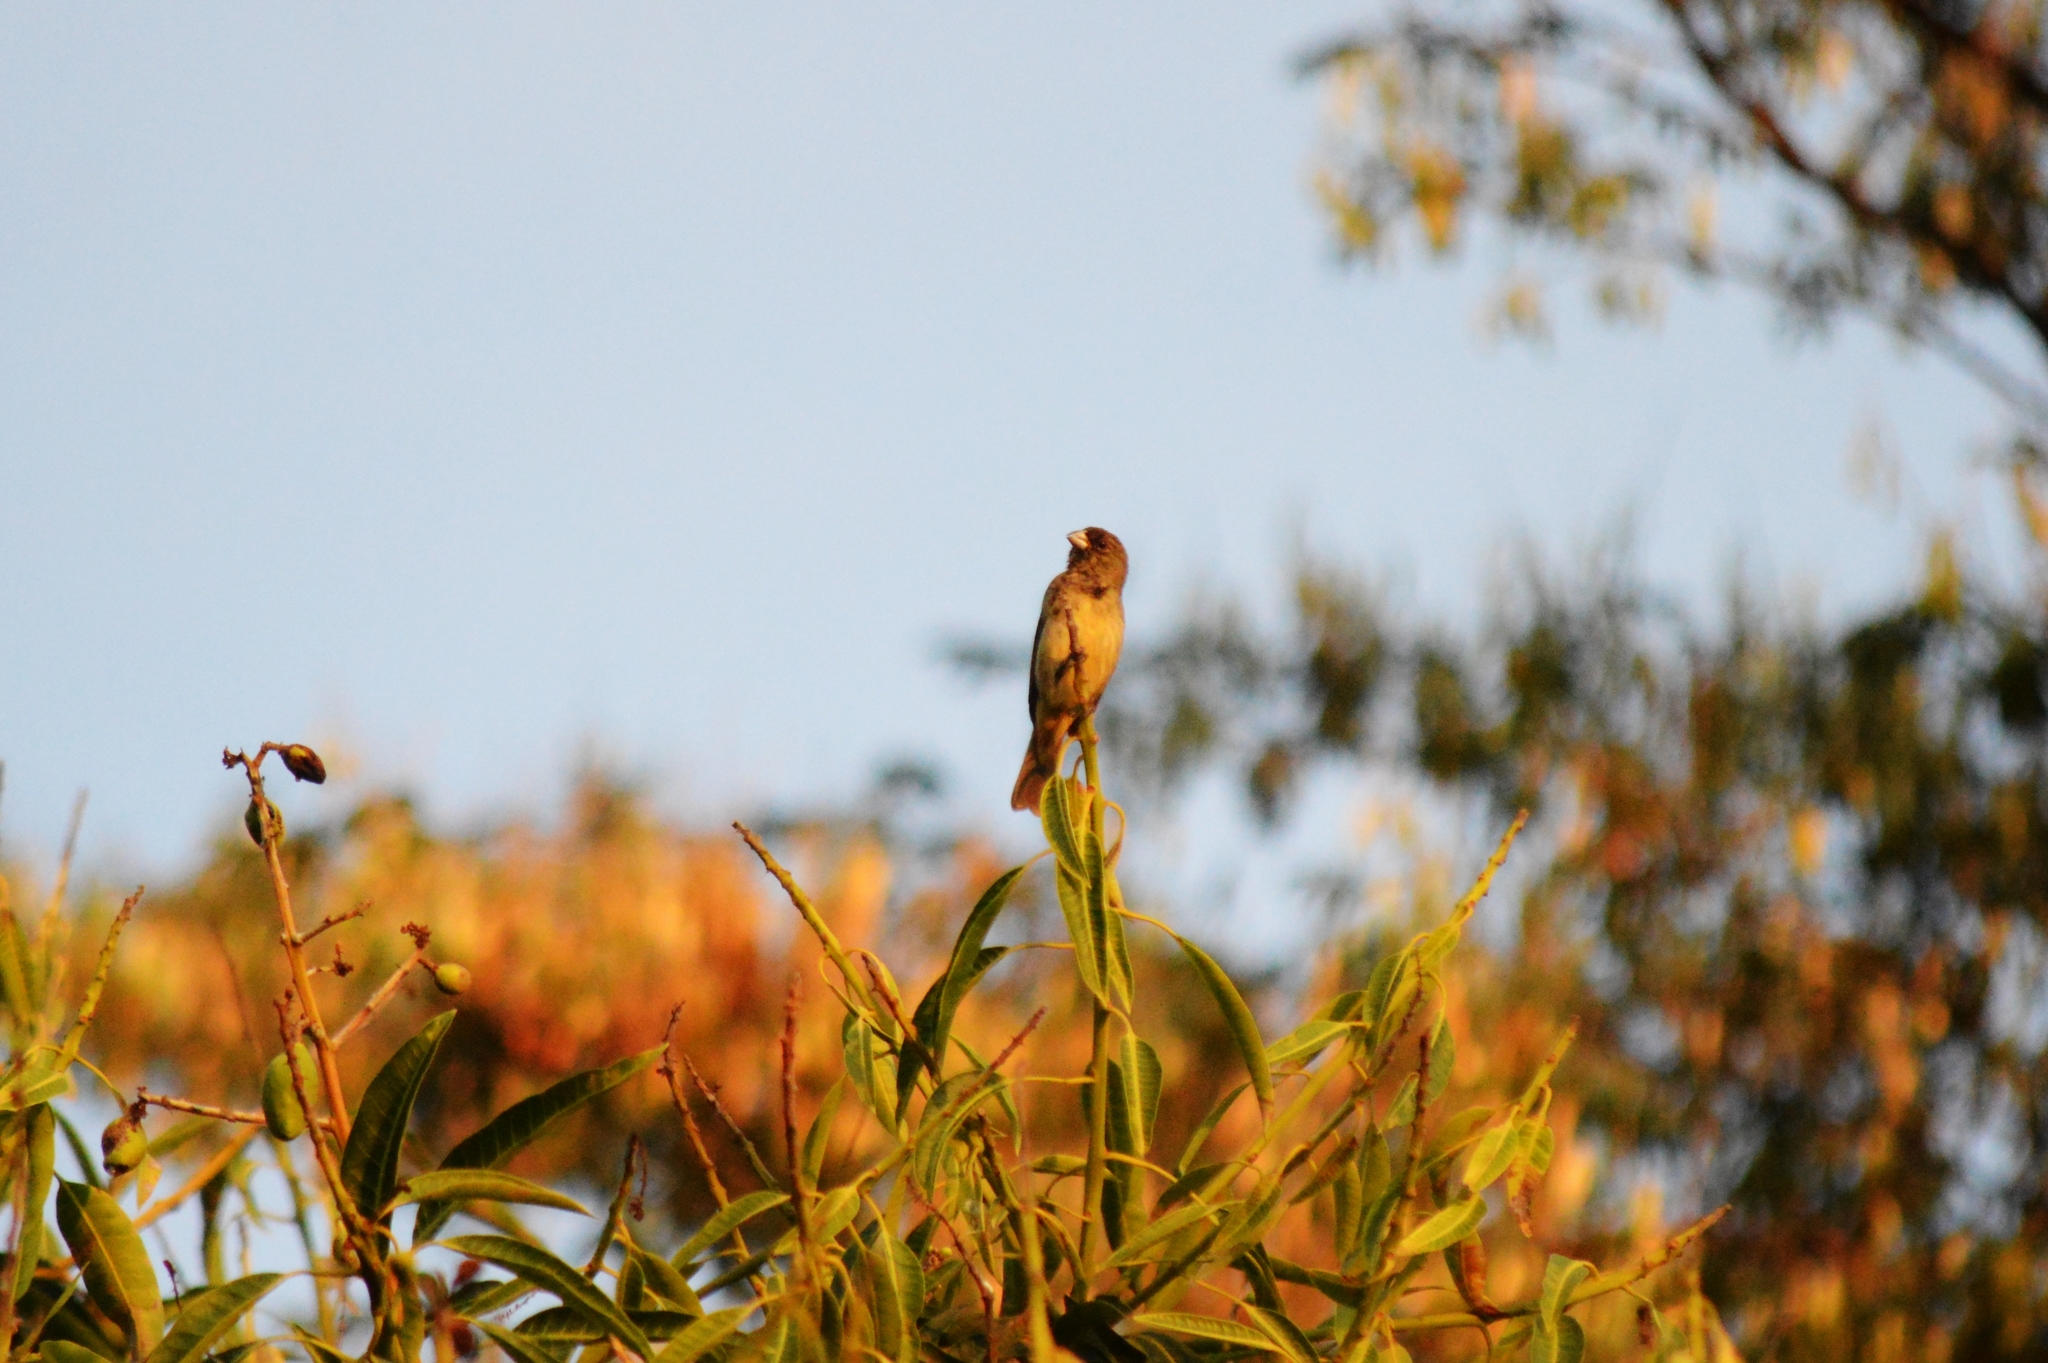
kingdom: Animalia
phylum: Chordata
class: Aves
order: Passeriformes
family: Thraupidae
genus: Sporophila
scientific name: Sporophila nigricollis
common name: Yellow-bellied seedeater
